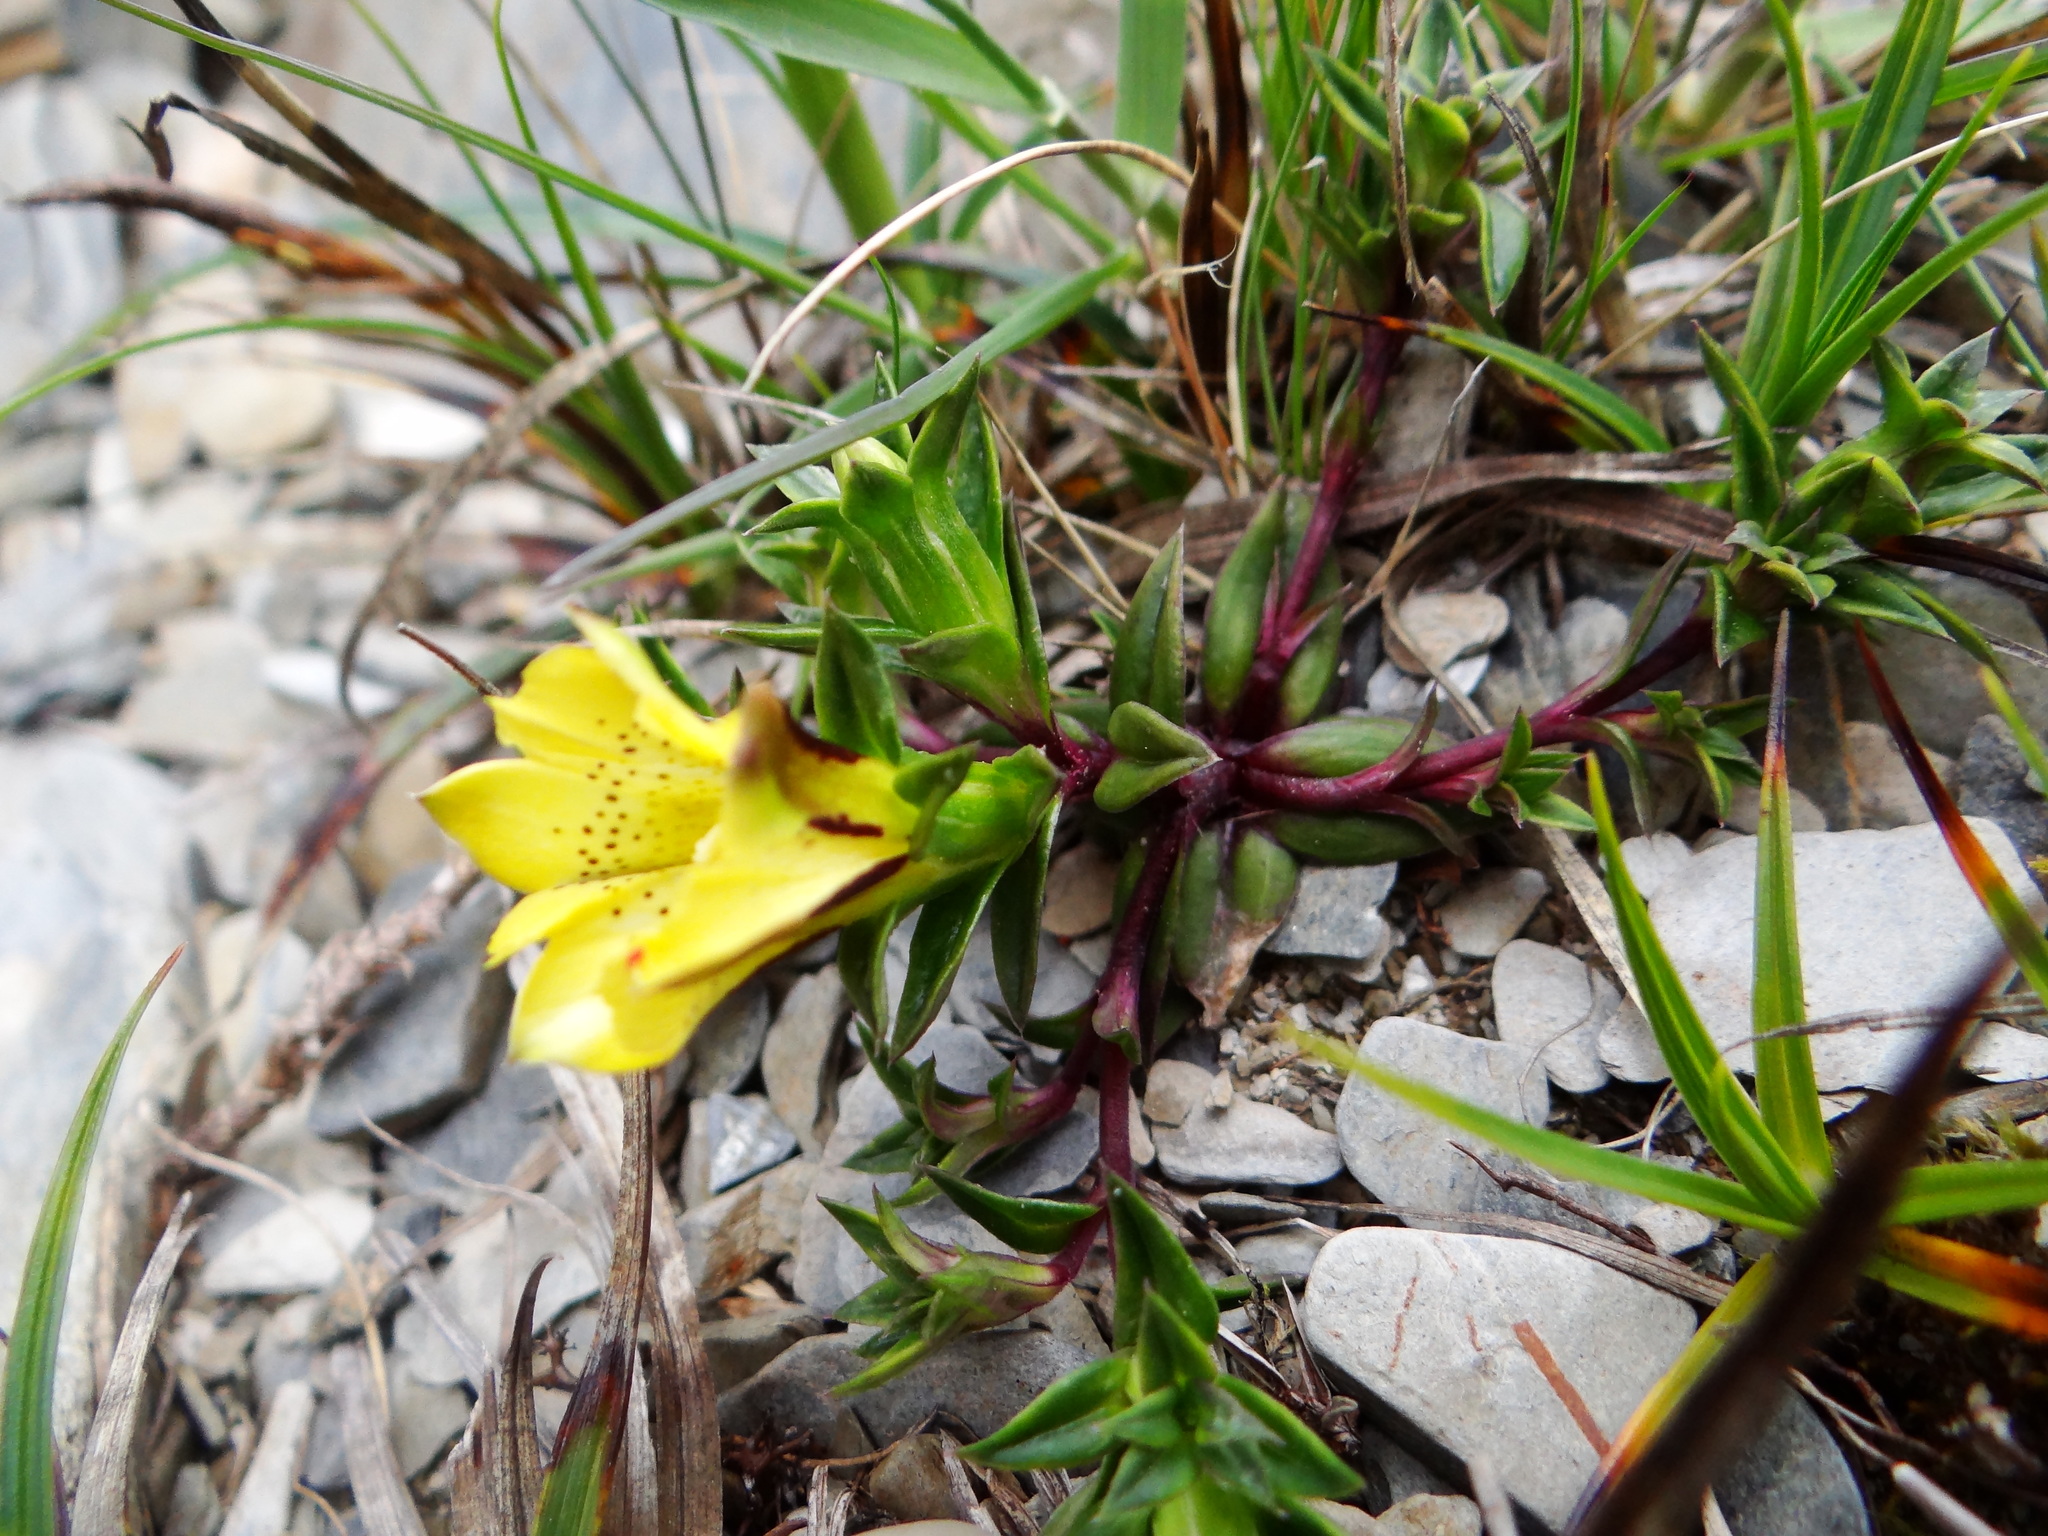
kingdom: Plantae
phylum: Tracheophyta
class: Magnoliopsida
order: Gentianales
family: Gentianaceae
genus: Gentiana
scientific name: Gentiana scabrida
